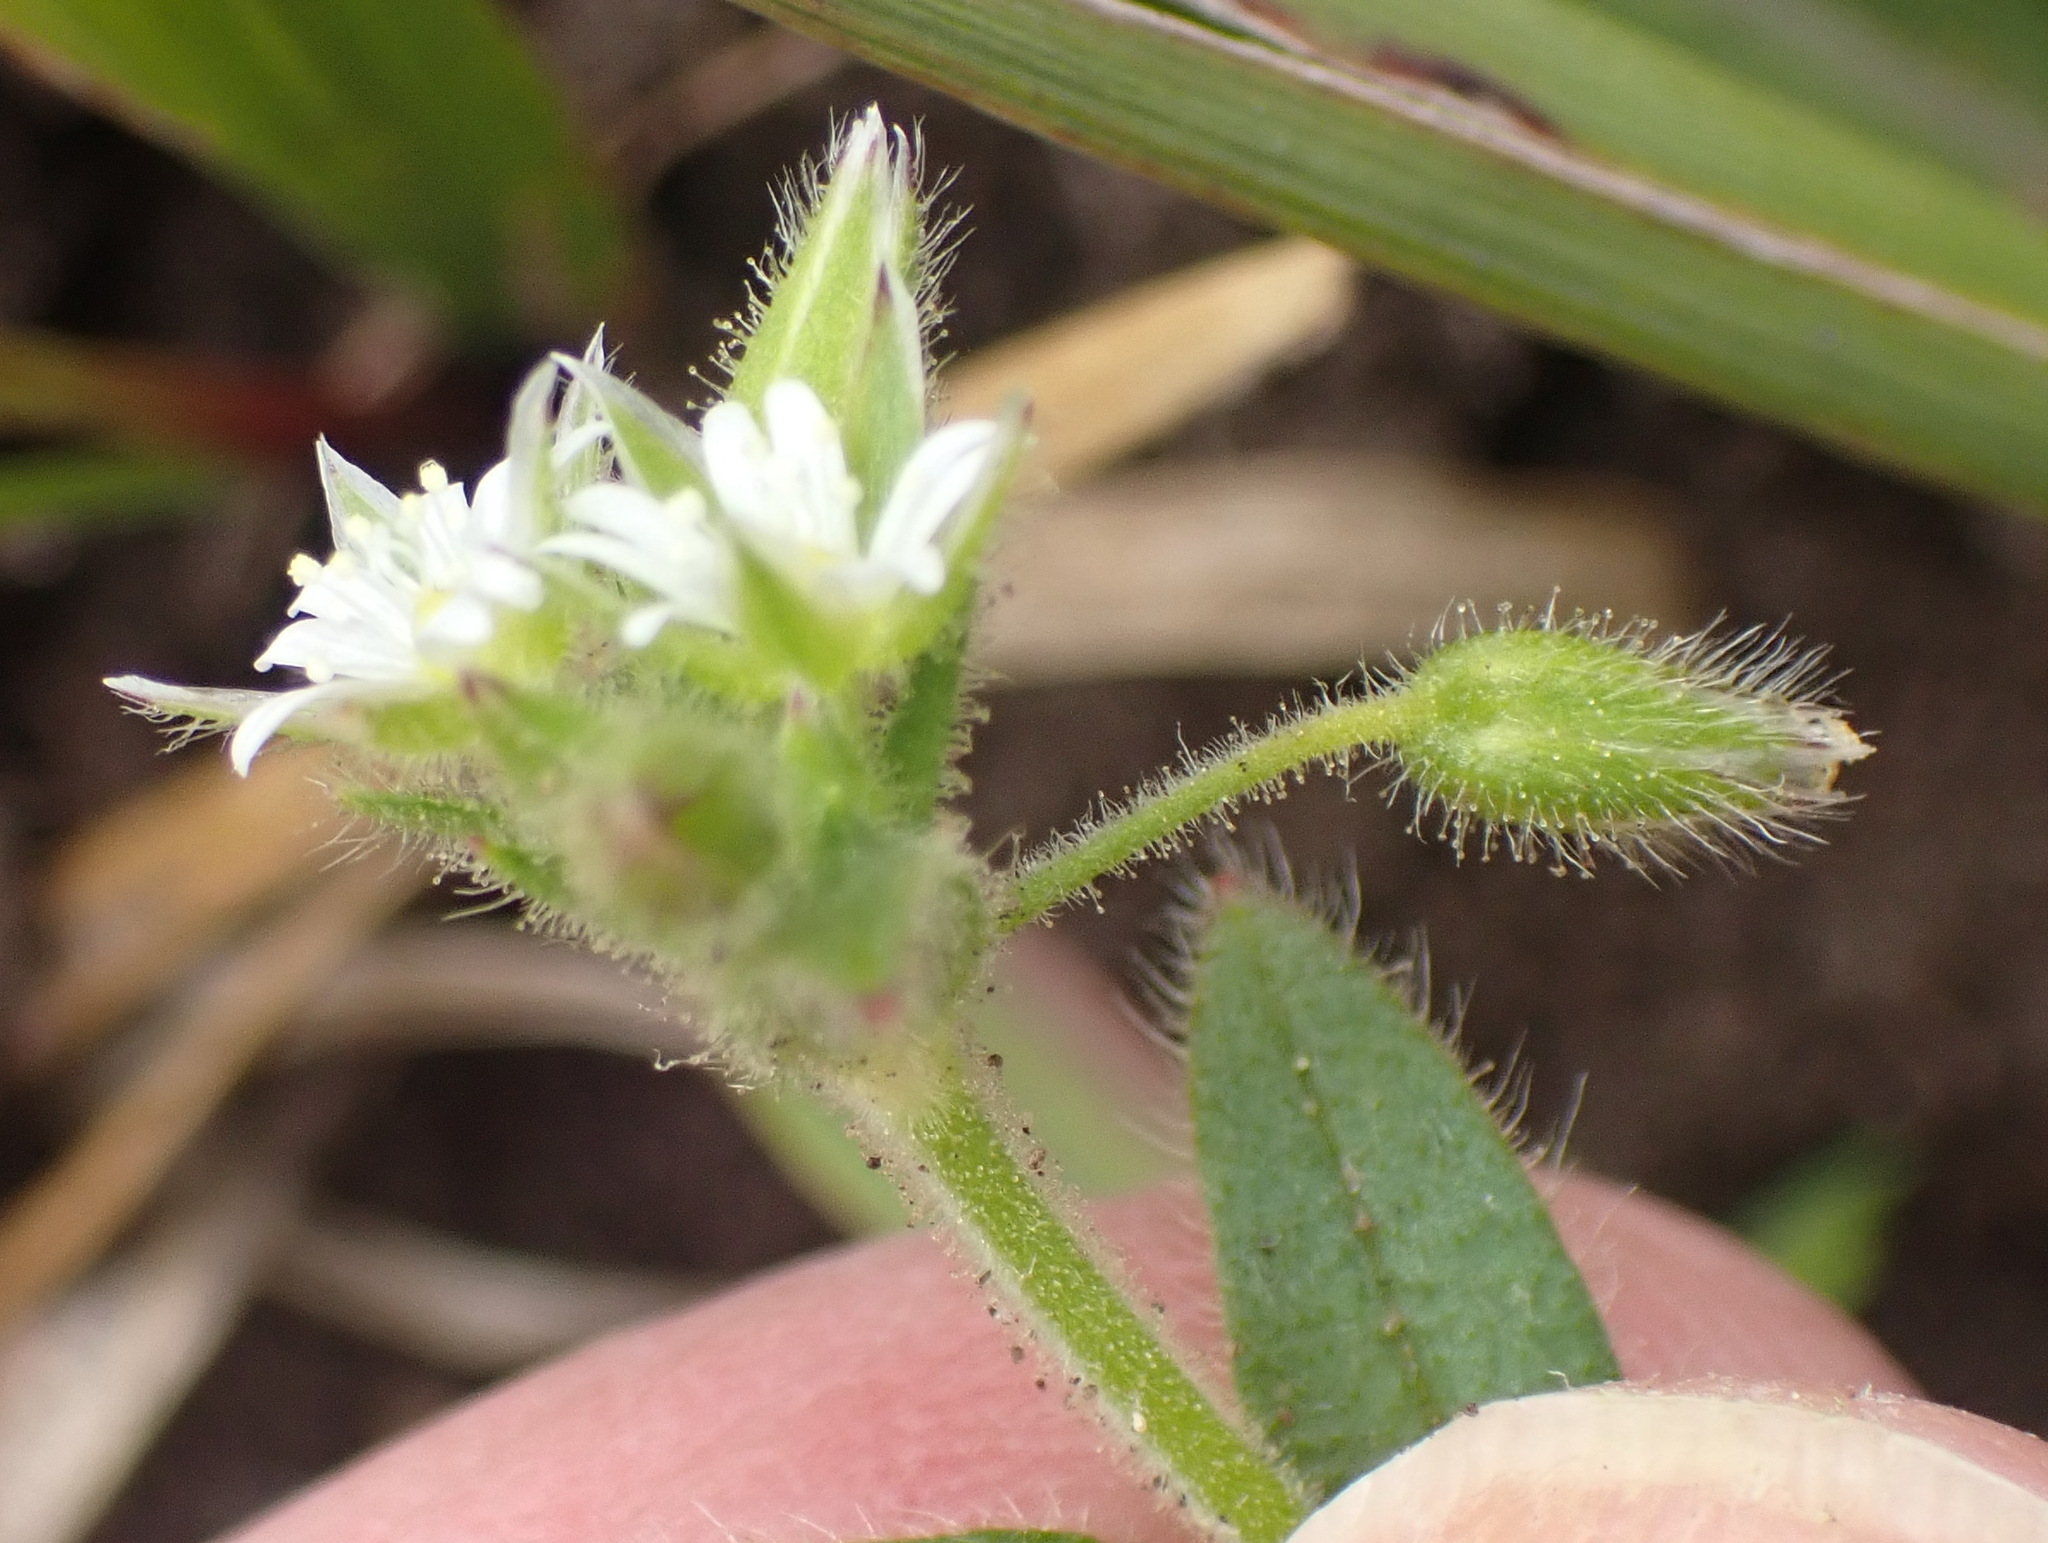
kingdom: Plantae
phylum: Tracheophyta
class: Magnoliopsida
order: Caryophyllales
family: Caryophyllaceae
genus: Cerastium
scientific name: Cerastium glomeratum
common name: Sticky chickweed
